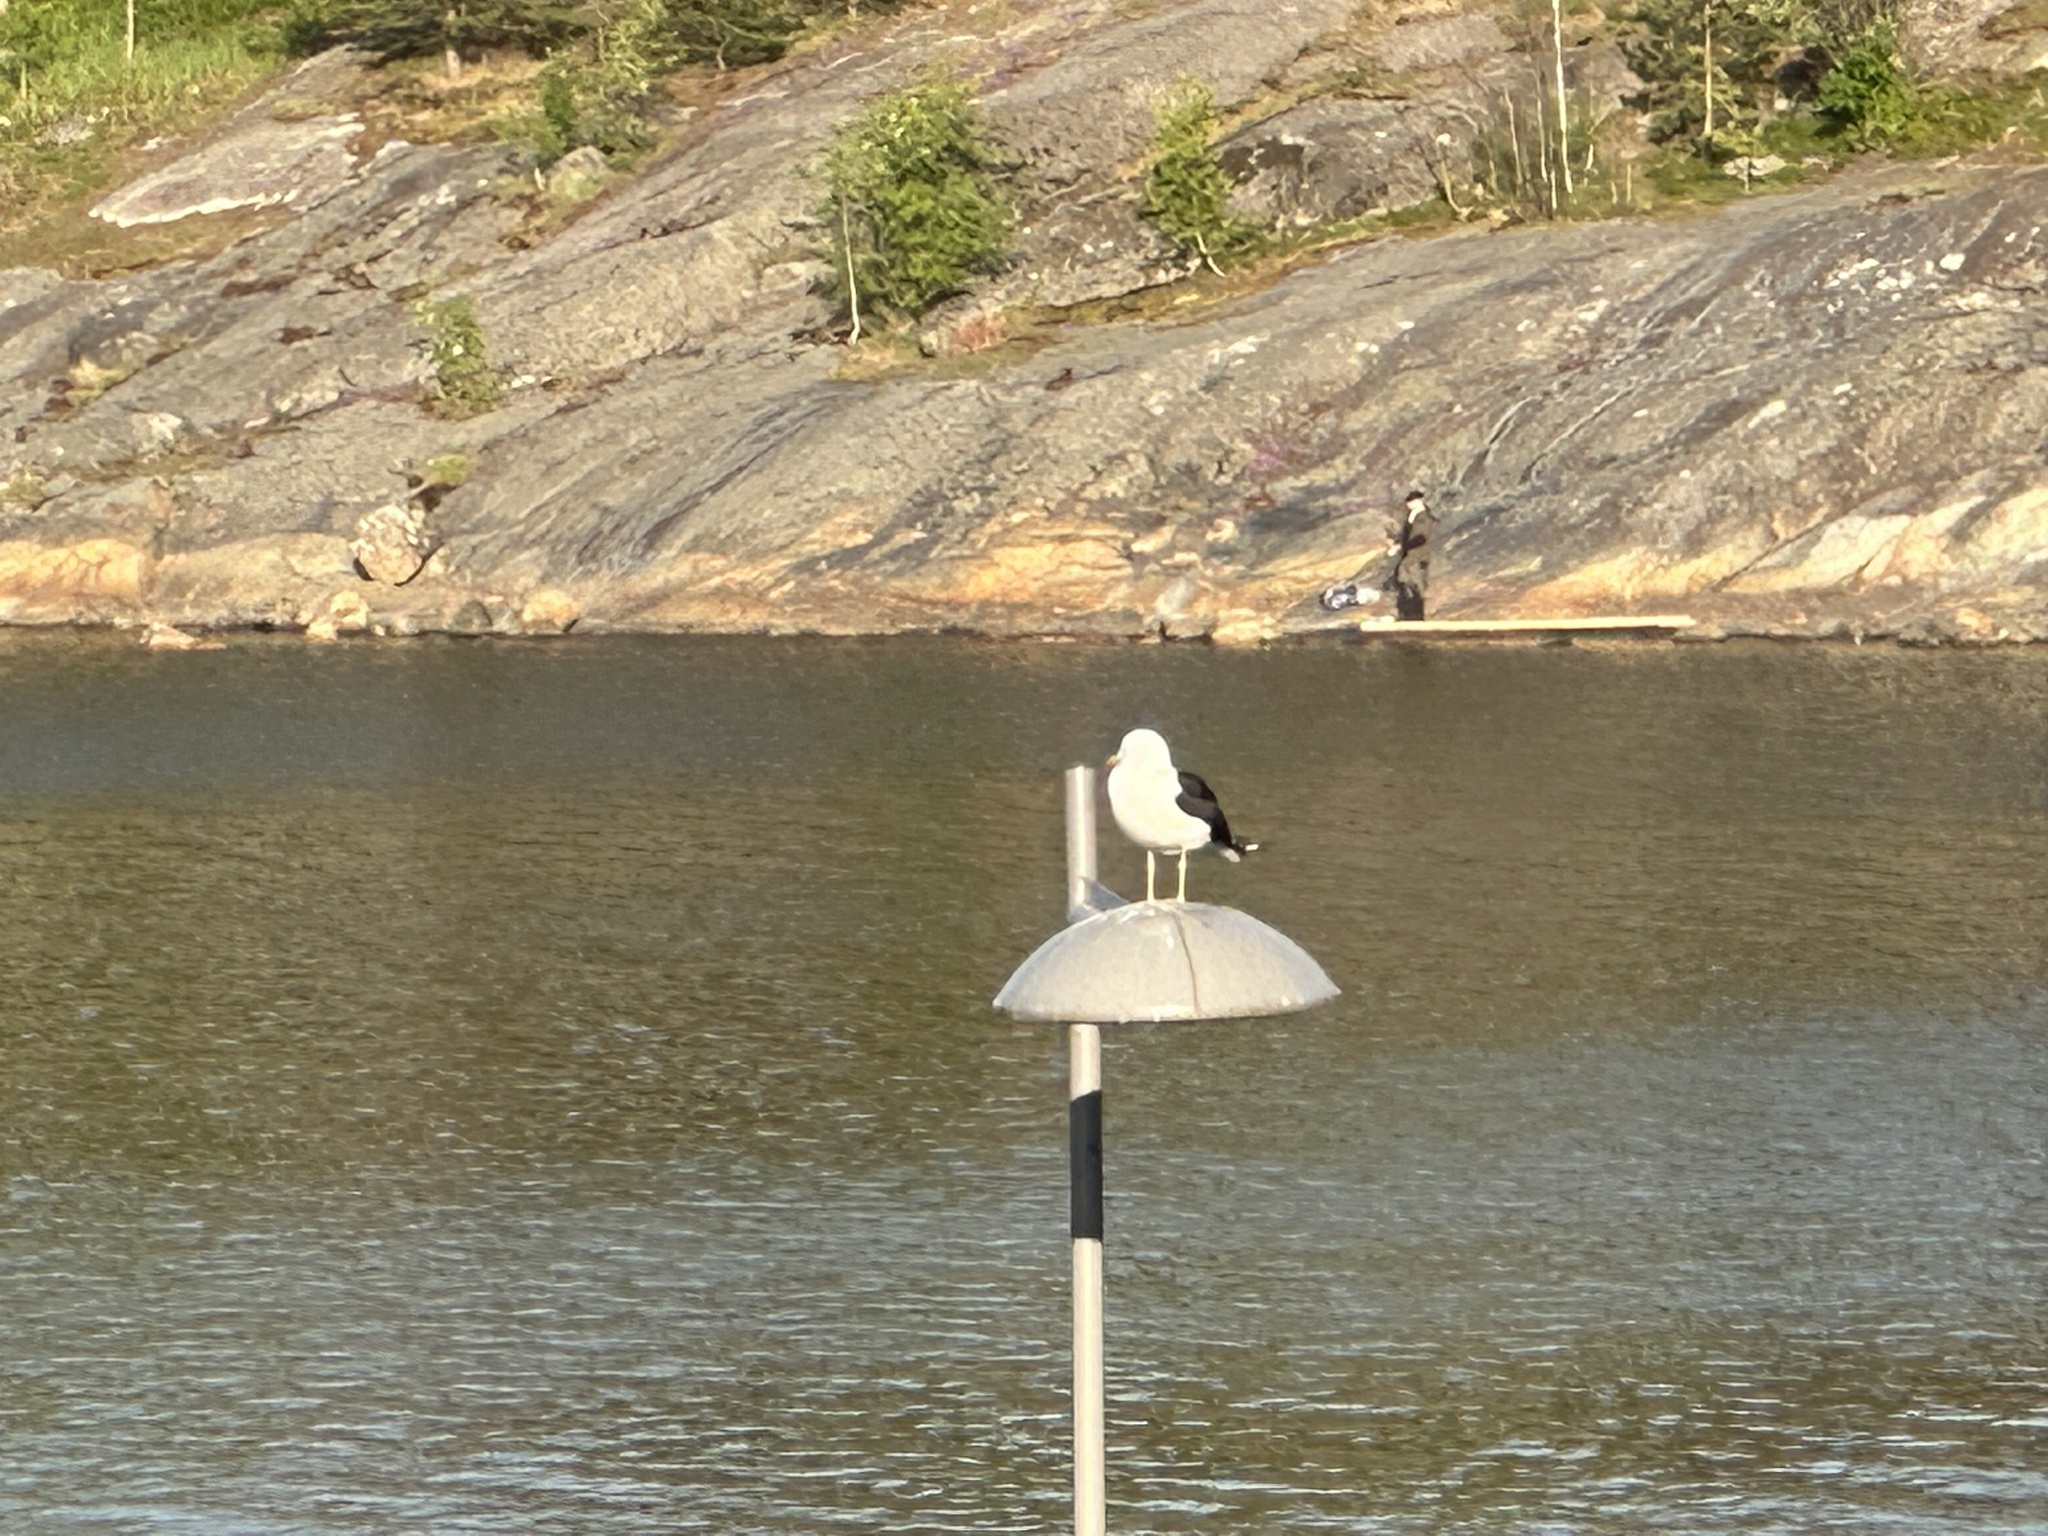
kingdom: Animalia
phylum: Chordata
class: Aves
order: Charadriiformes
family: Laridae
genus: Larus
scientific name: Larus fuscus
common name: Lesser black-backed gull
